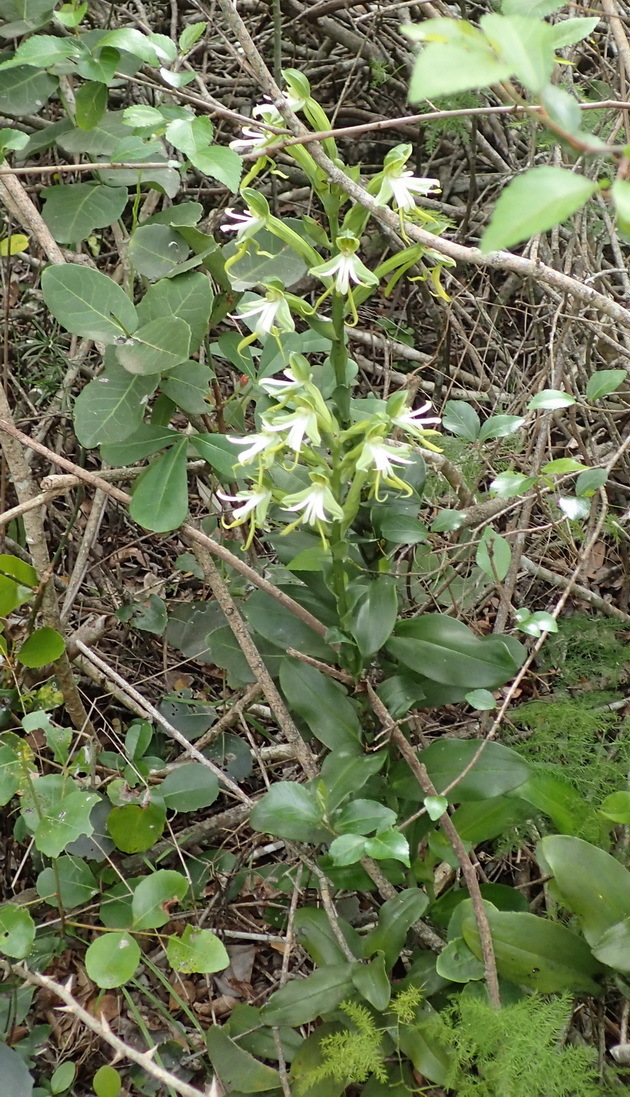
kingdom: Plantae
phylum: Tracheophyta
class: Liliopsida
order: Asparagales
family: Orchidaceae
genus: Bonatea
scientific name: Bonatea speciosa
